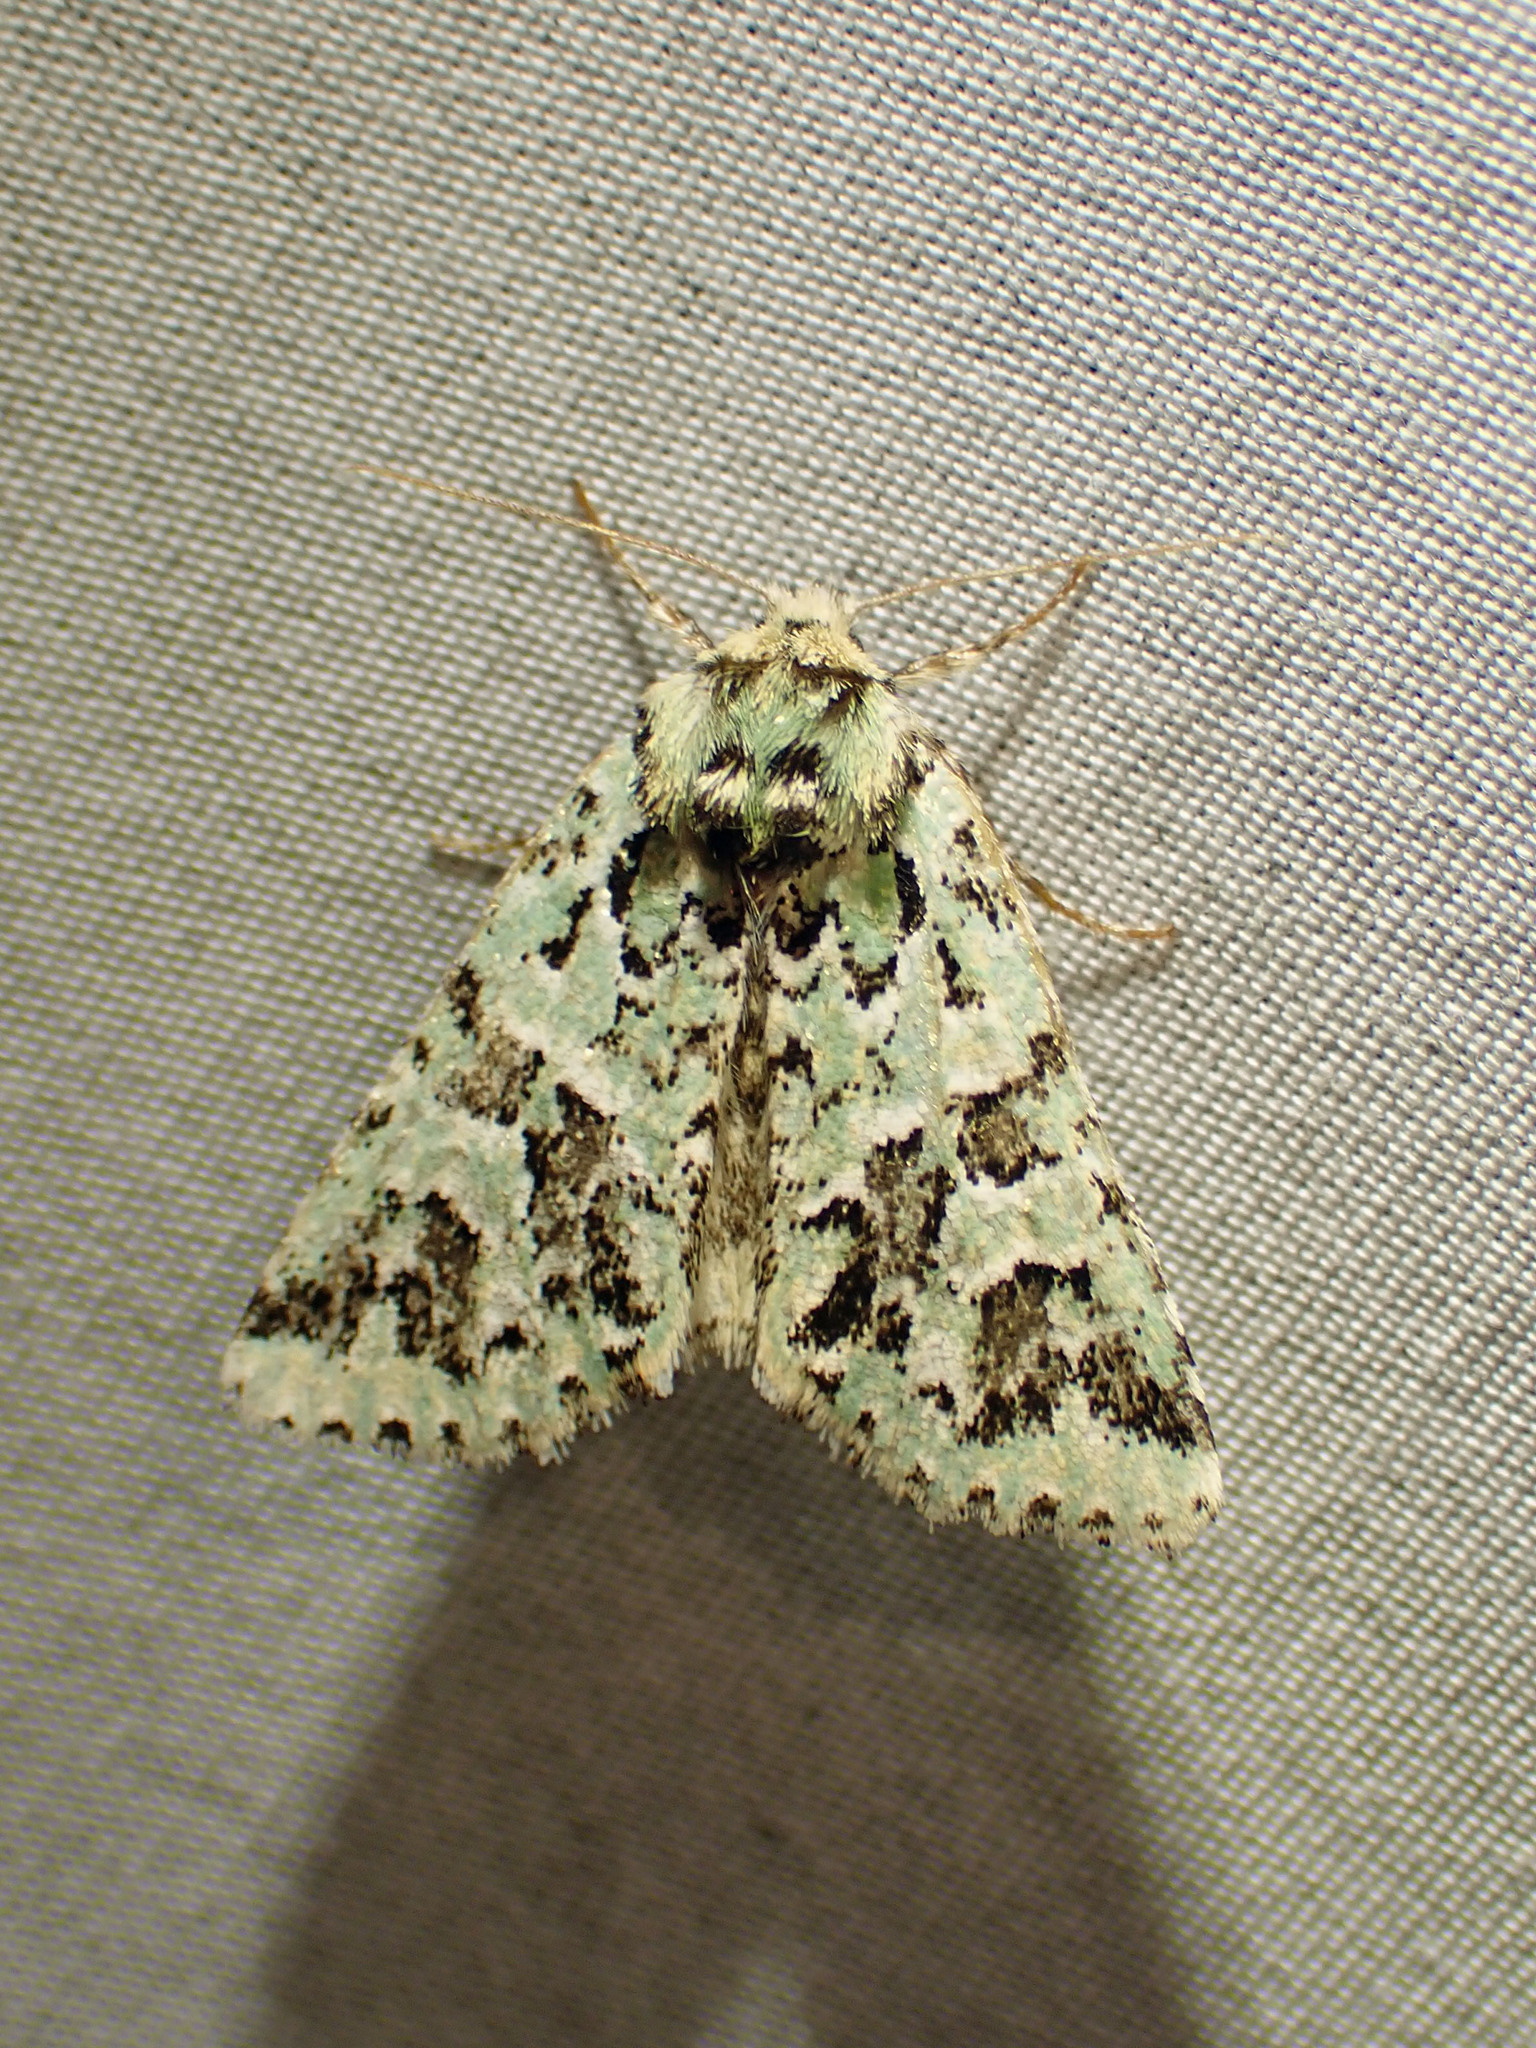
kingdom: Animalia
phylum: Arthropoda
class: Insecta
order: Lepidoptera
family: Noctuidae
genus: Feralia
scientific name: Feralia comstocki
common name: Comstock's sallow
